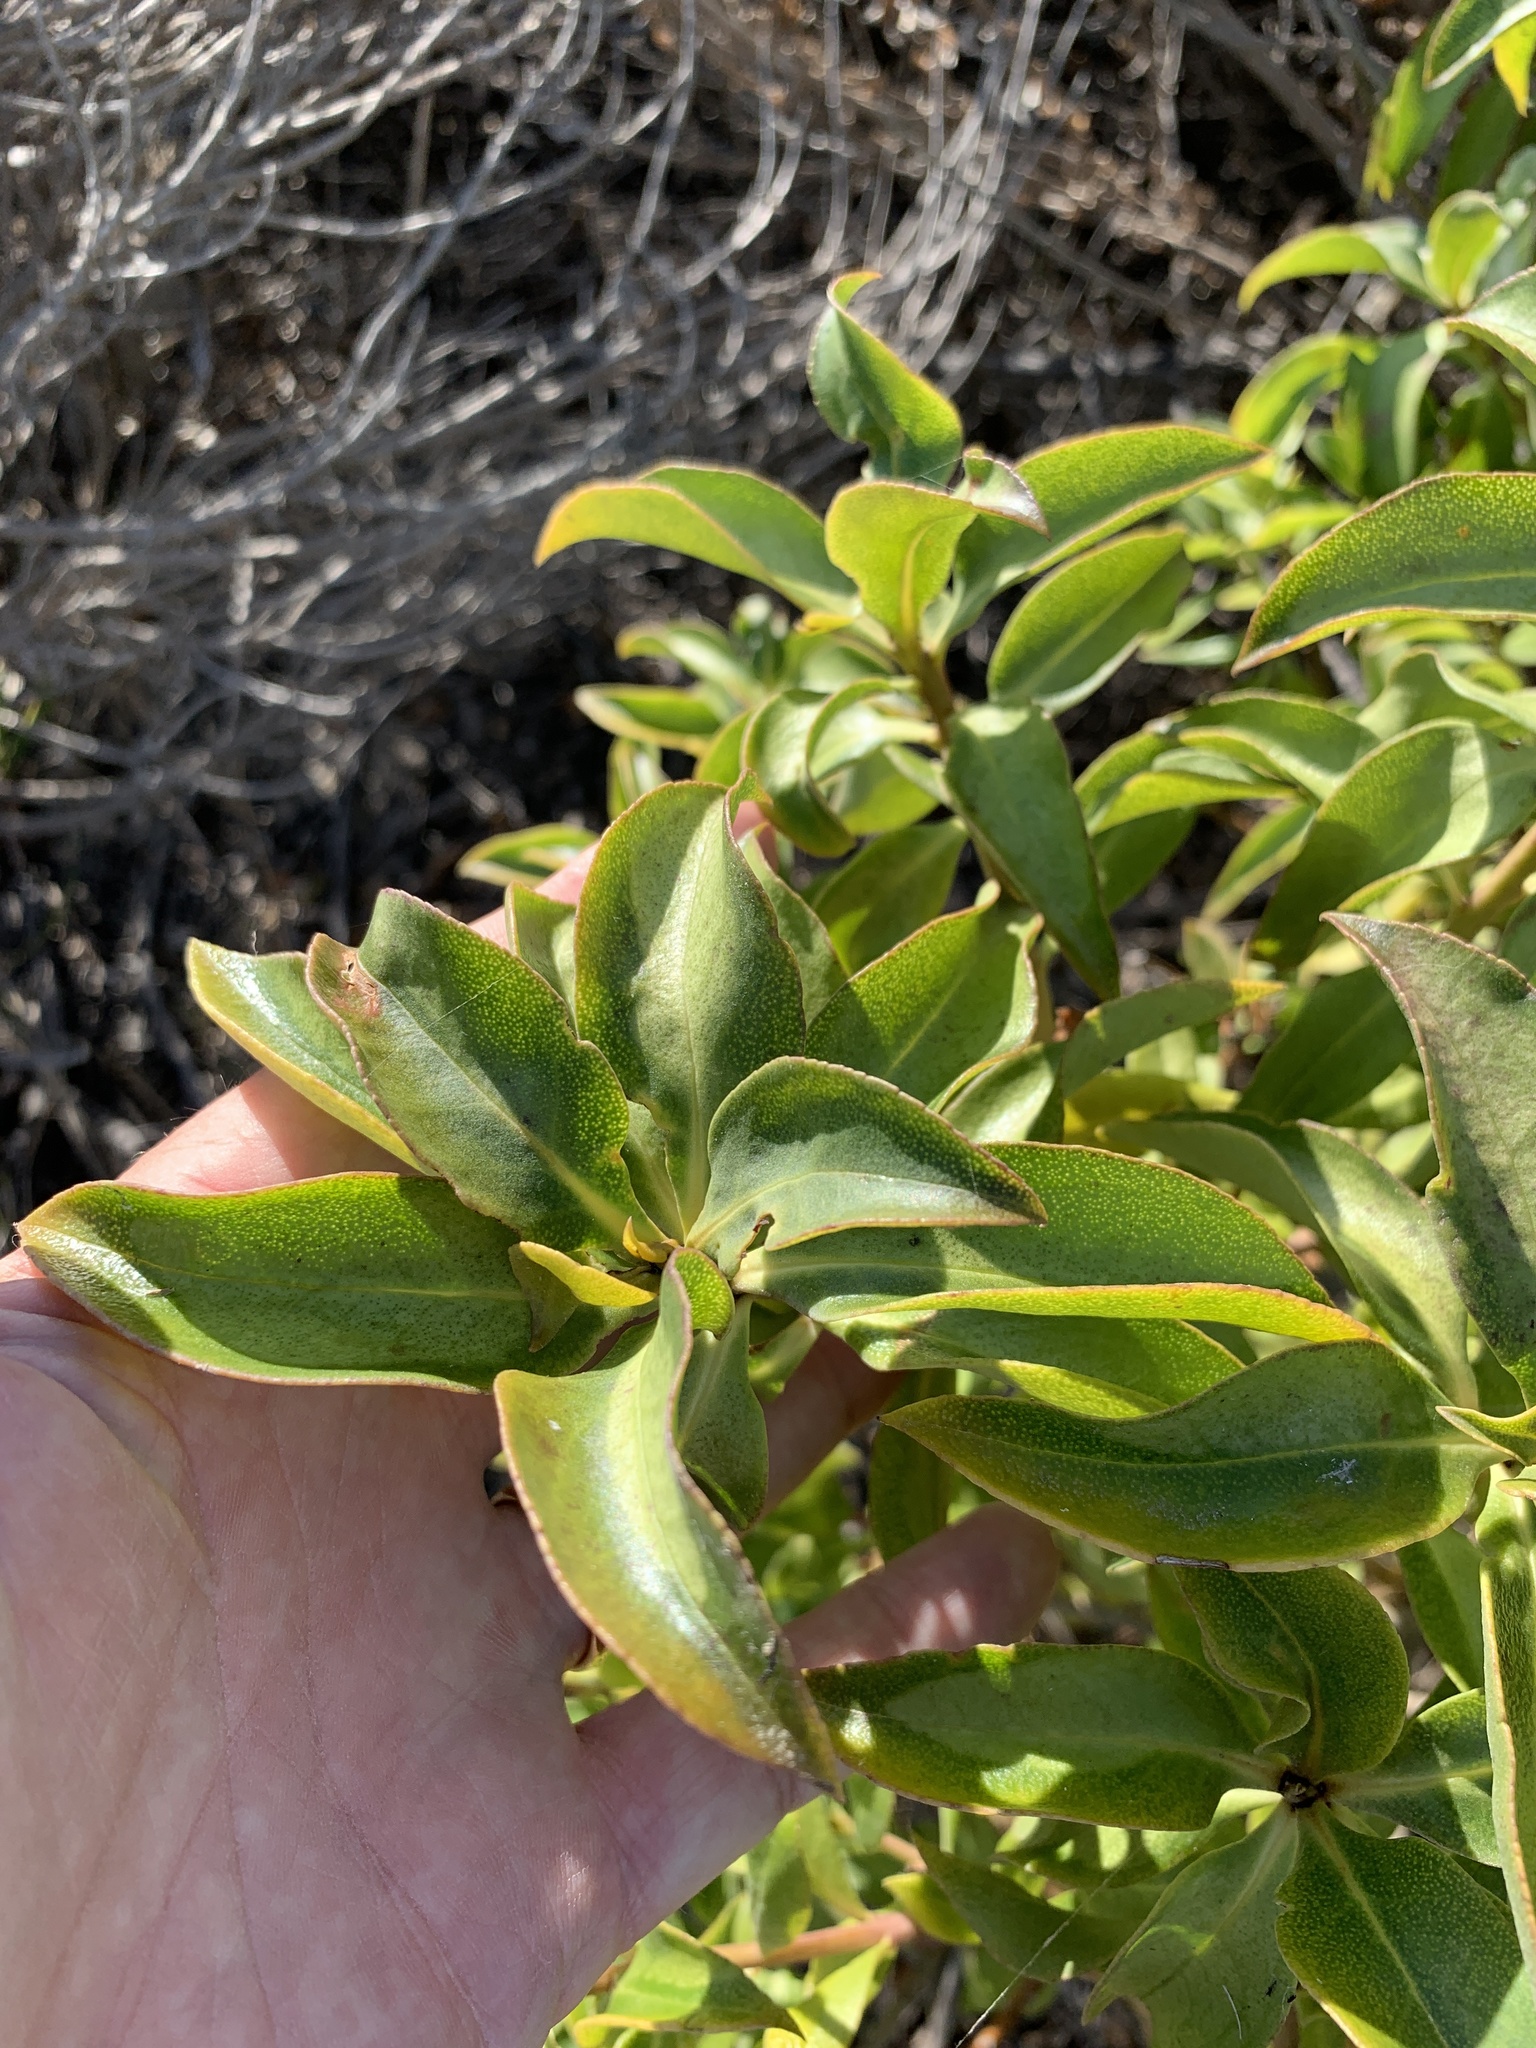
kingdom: Plantae
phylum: Tracheophyta
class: Magnoliopsida
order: Lamiales
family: Scrophulariaceae
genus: Myoporum
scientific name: Myoporum laetum
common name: Ngaio tree
